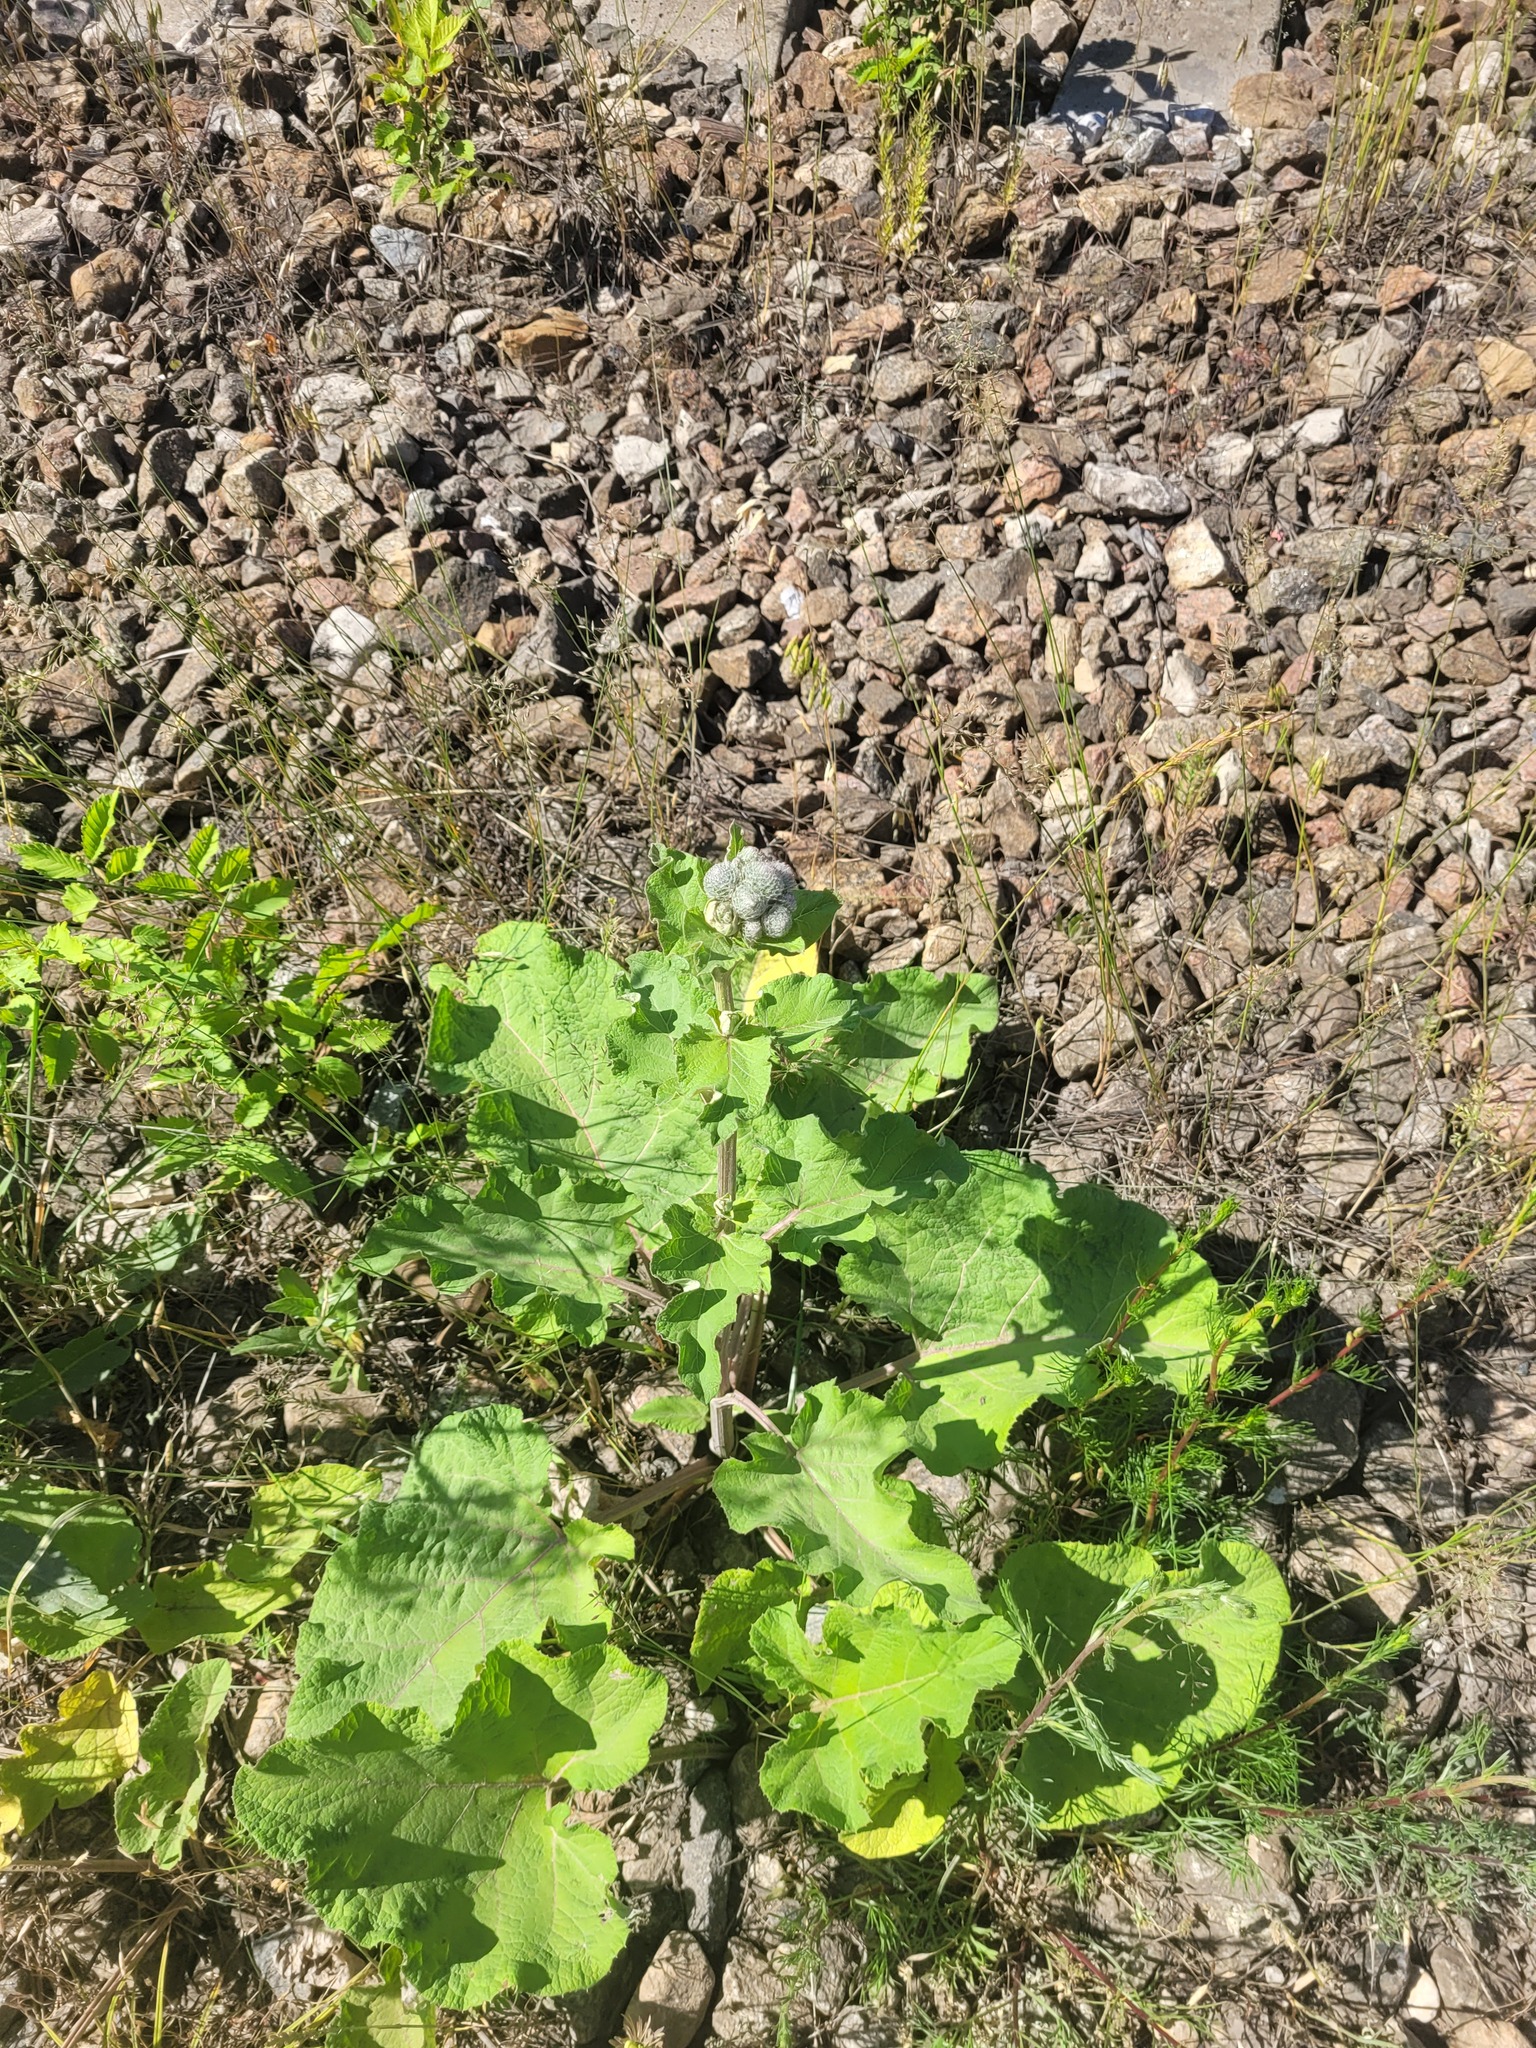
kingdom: Plantae
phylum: Tracheophyta
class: Magnoliopsida
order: Asterales
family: Asteraceae
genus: Arctium
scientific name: Arctium tomentosum
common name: Woolly burdock
